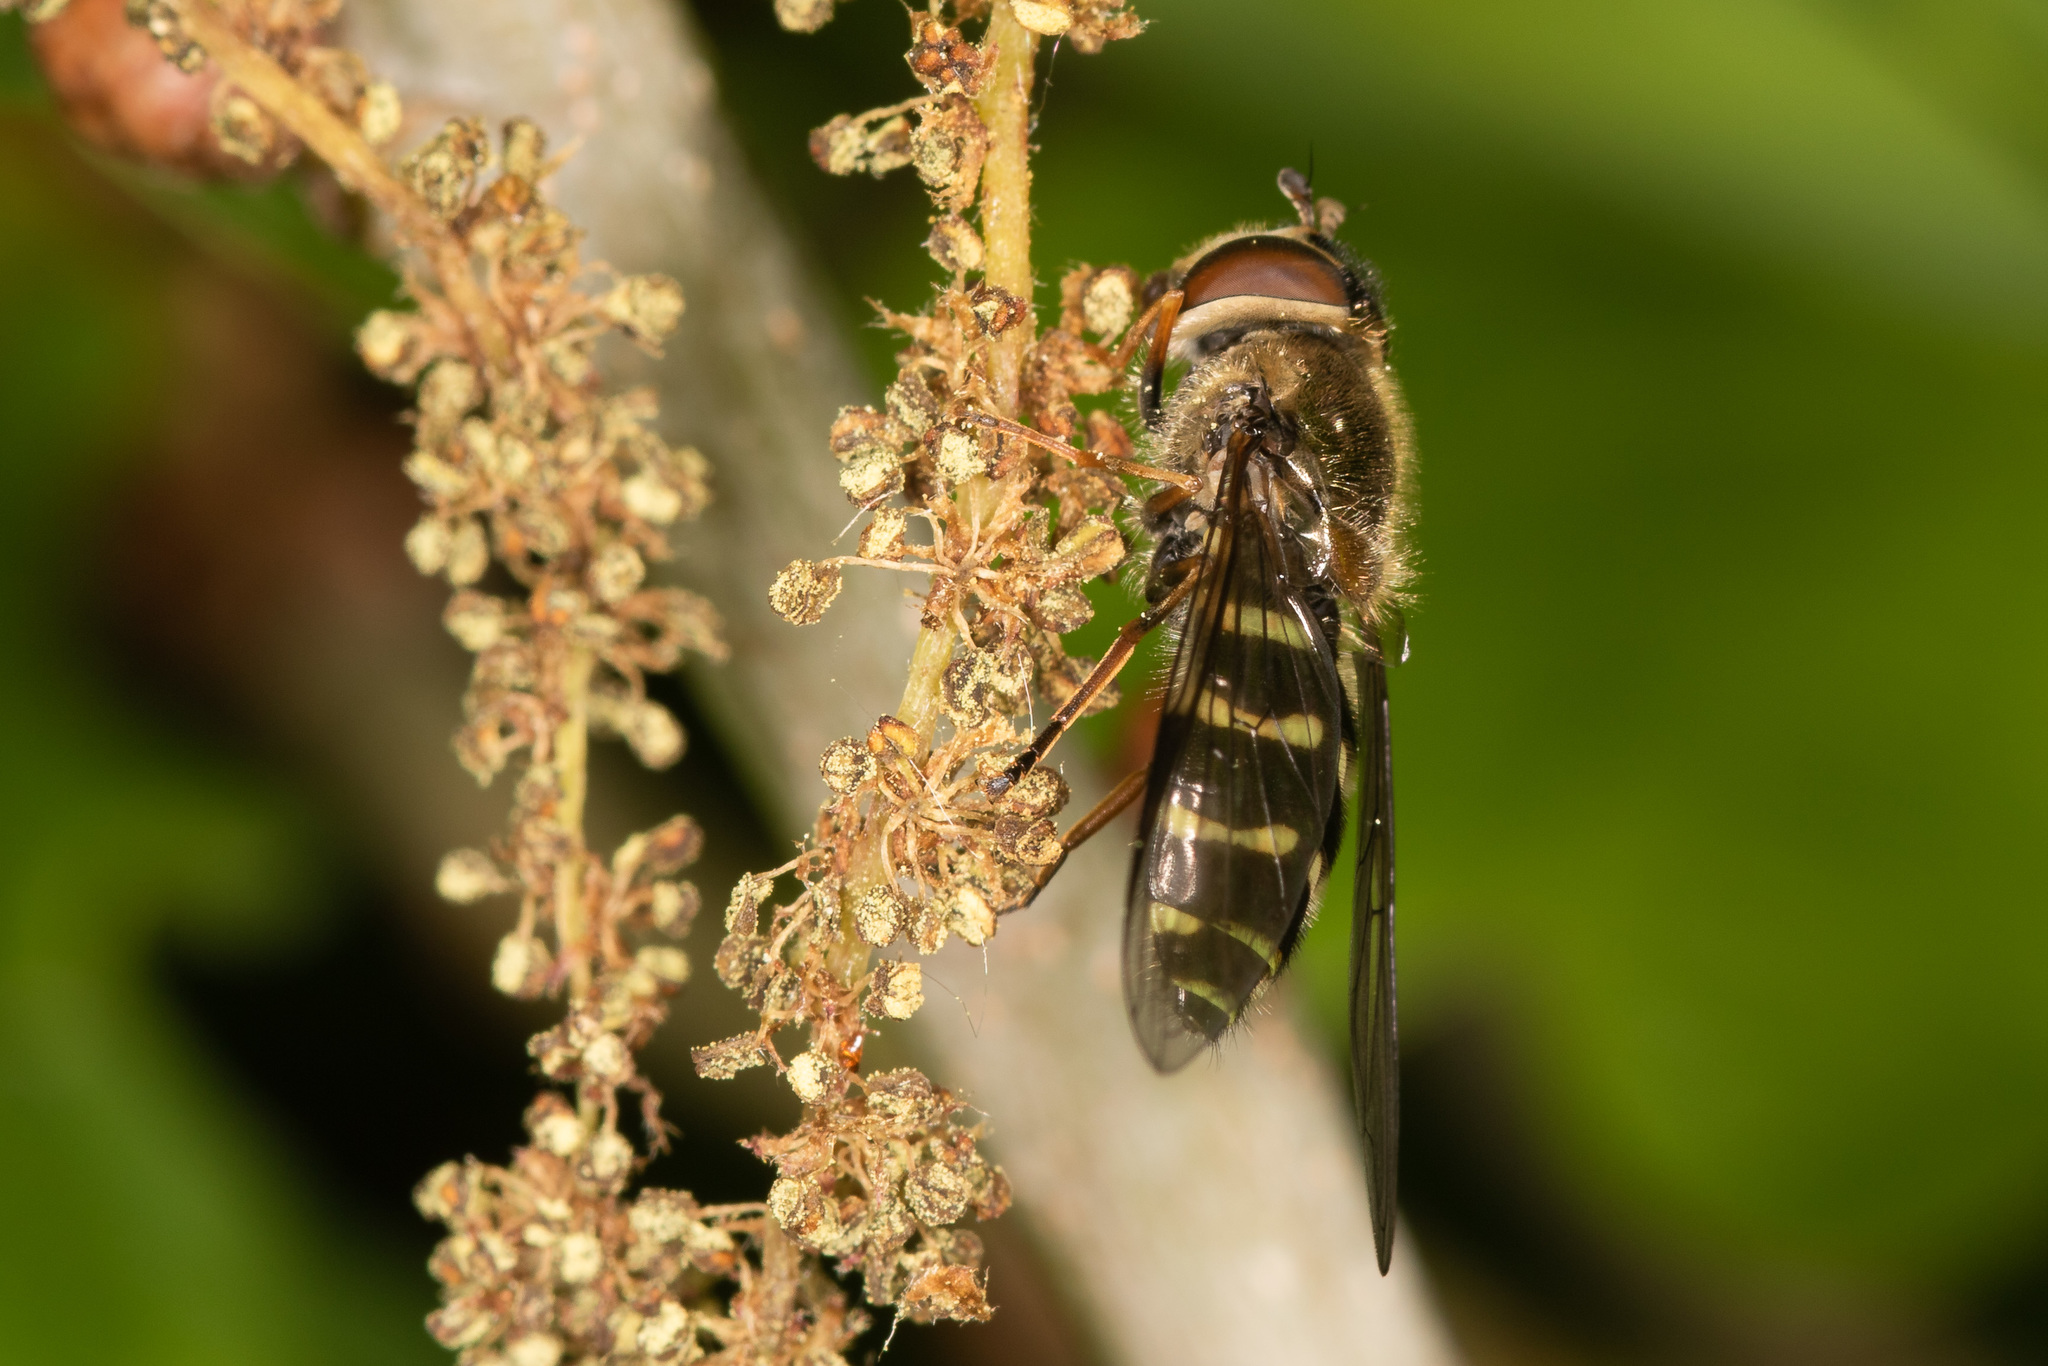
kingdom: Animalia
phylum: Arthropoda
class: Insecta
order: Diptera
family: Syrphidae
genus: Dasysyrphus
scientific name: Dasysyrphus
